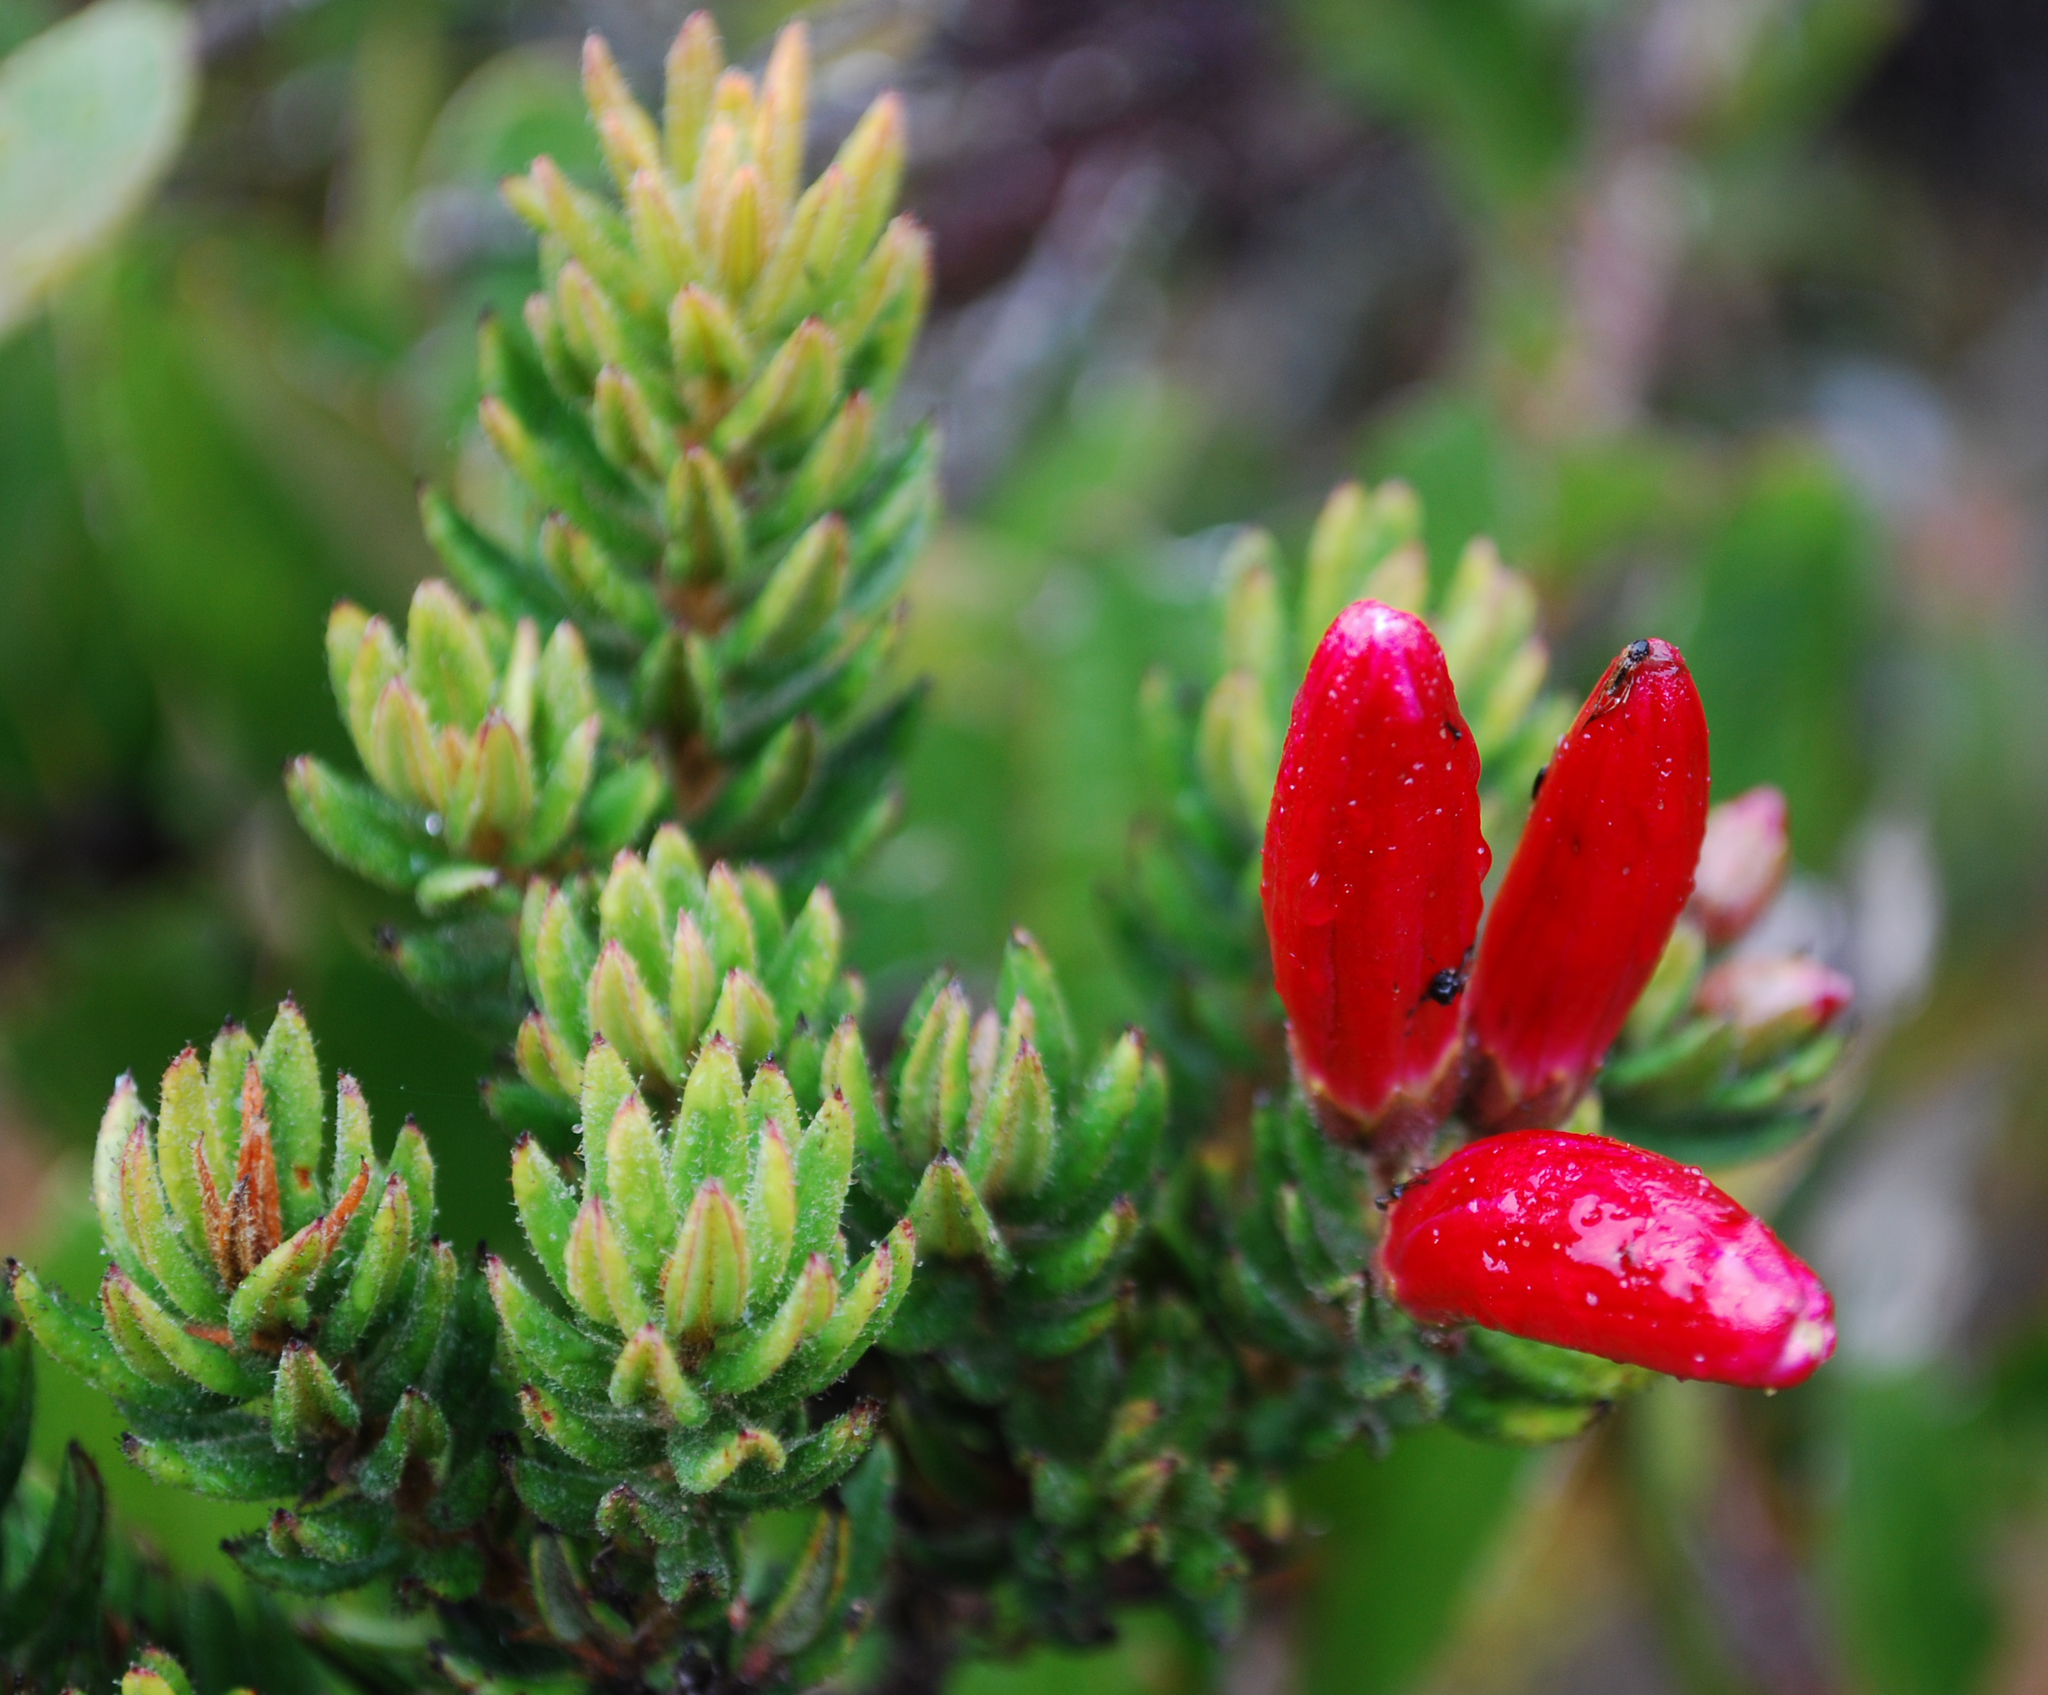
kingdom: Plantae
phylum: Tracheophyta
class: Magnoliopsida
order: Ericales
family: Ericaceae
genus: Bejaria
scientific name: Bejaria resinosa
